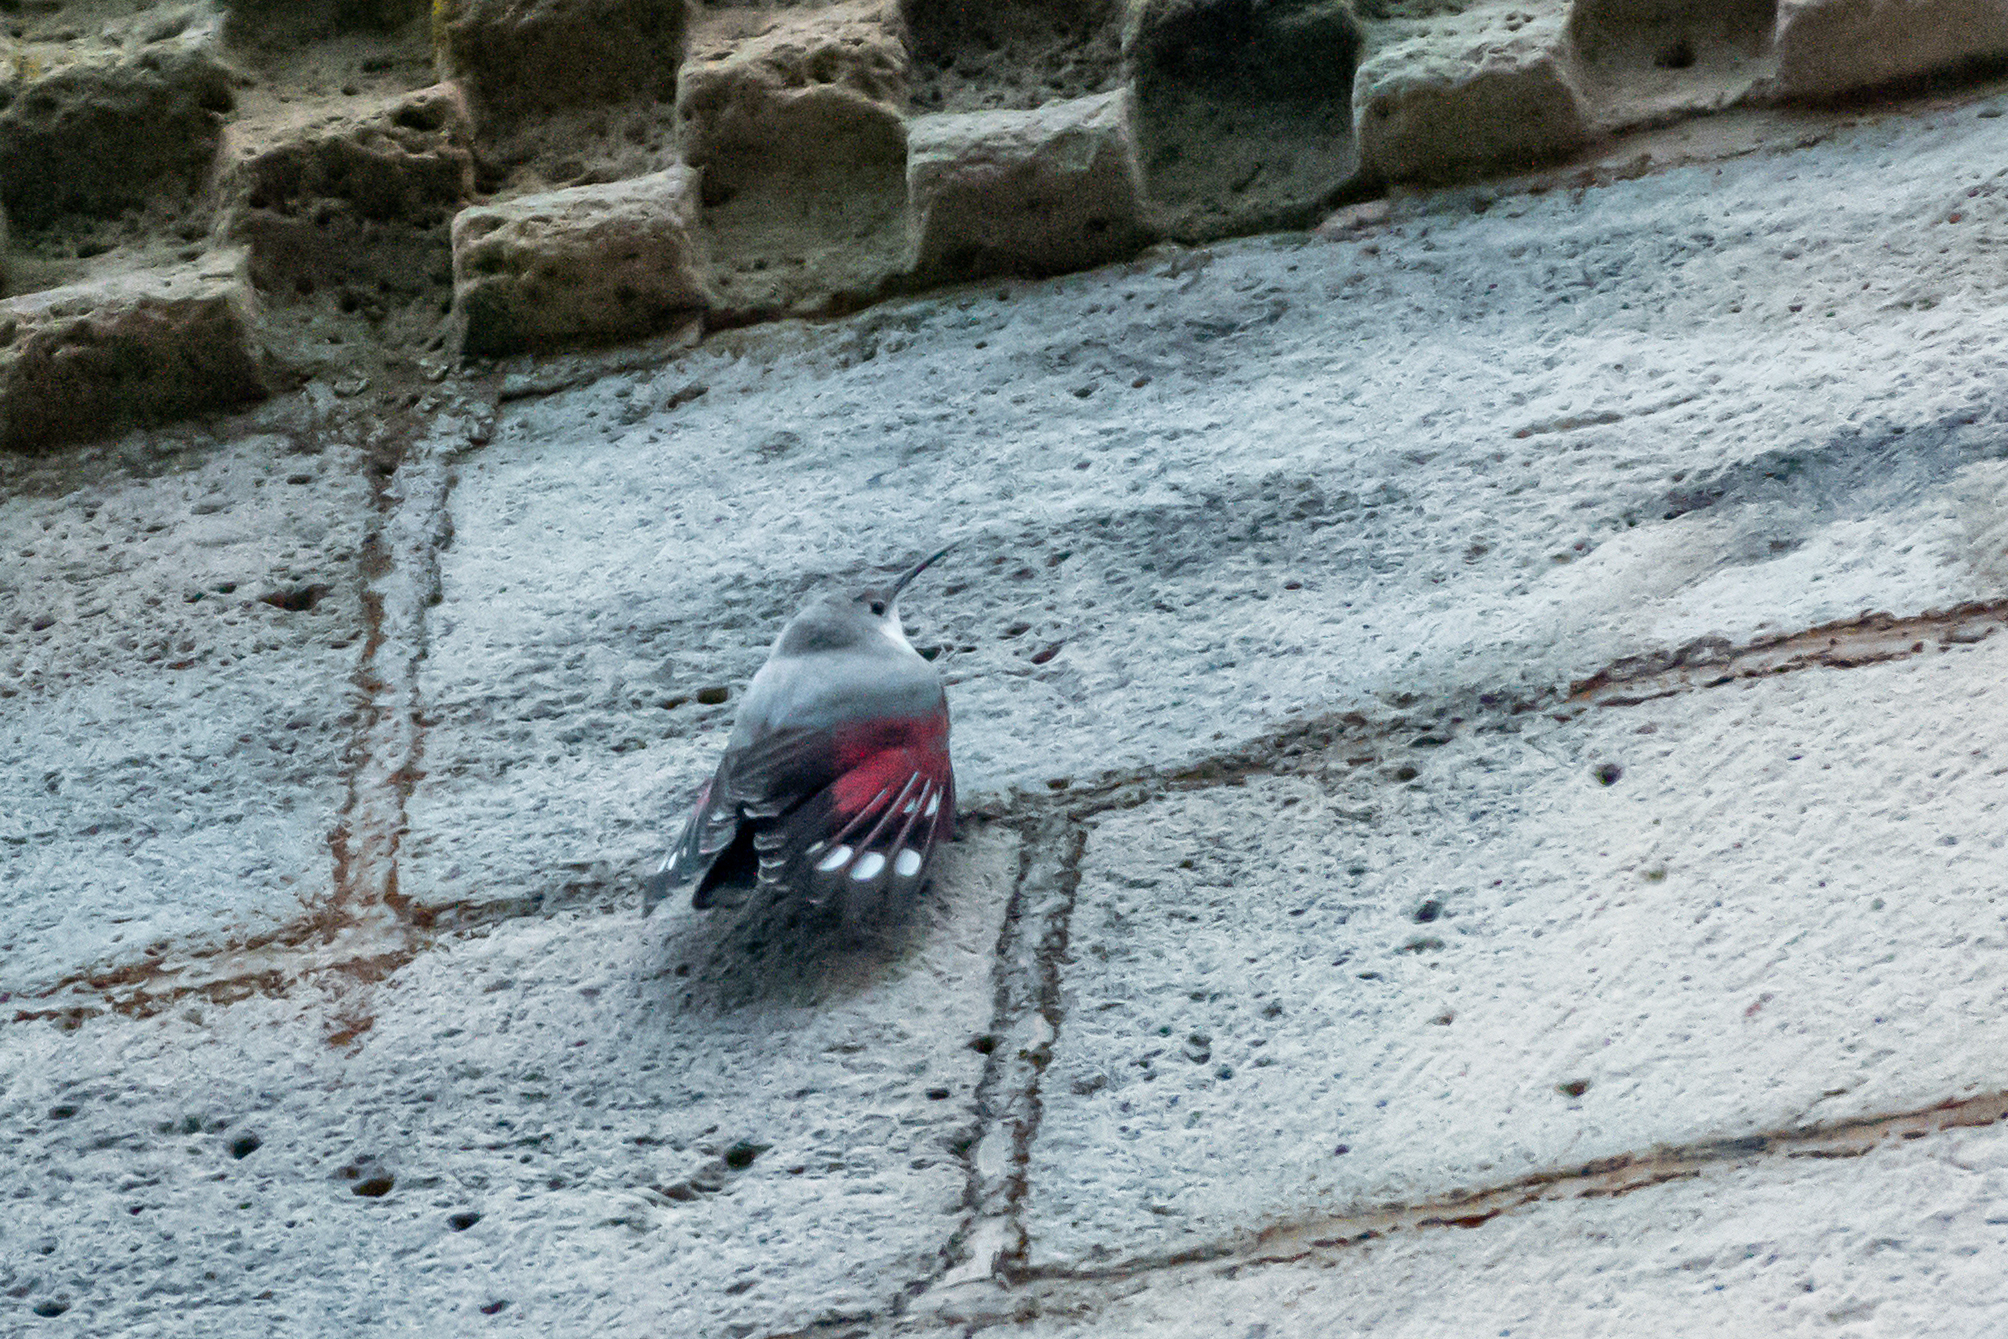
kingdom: Animalia
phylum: Chordata
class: Aves
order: Passeriformes
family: Tichodromidae
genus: Tichodroma
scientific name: Tichodroma muraria
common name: Wallcreeper
